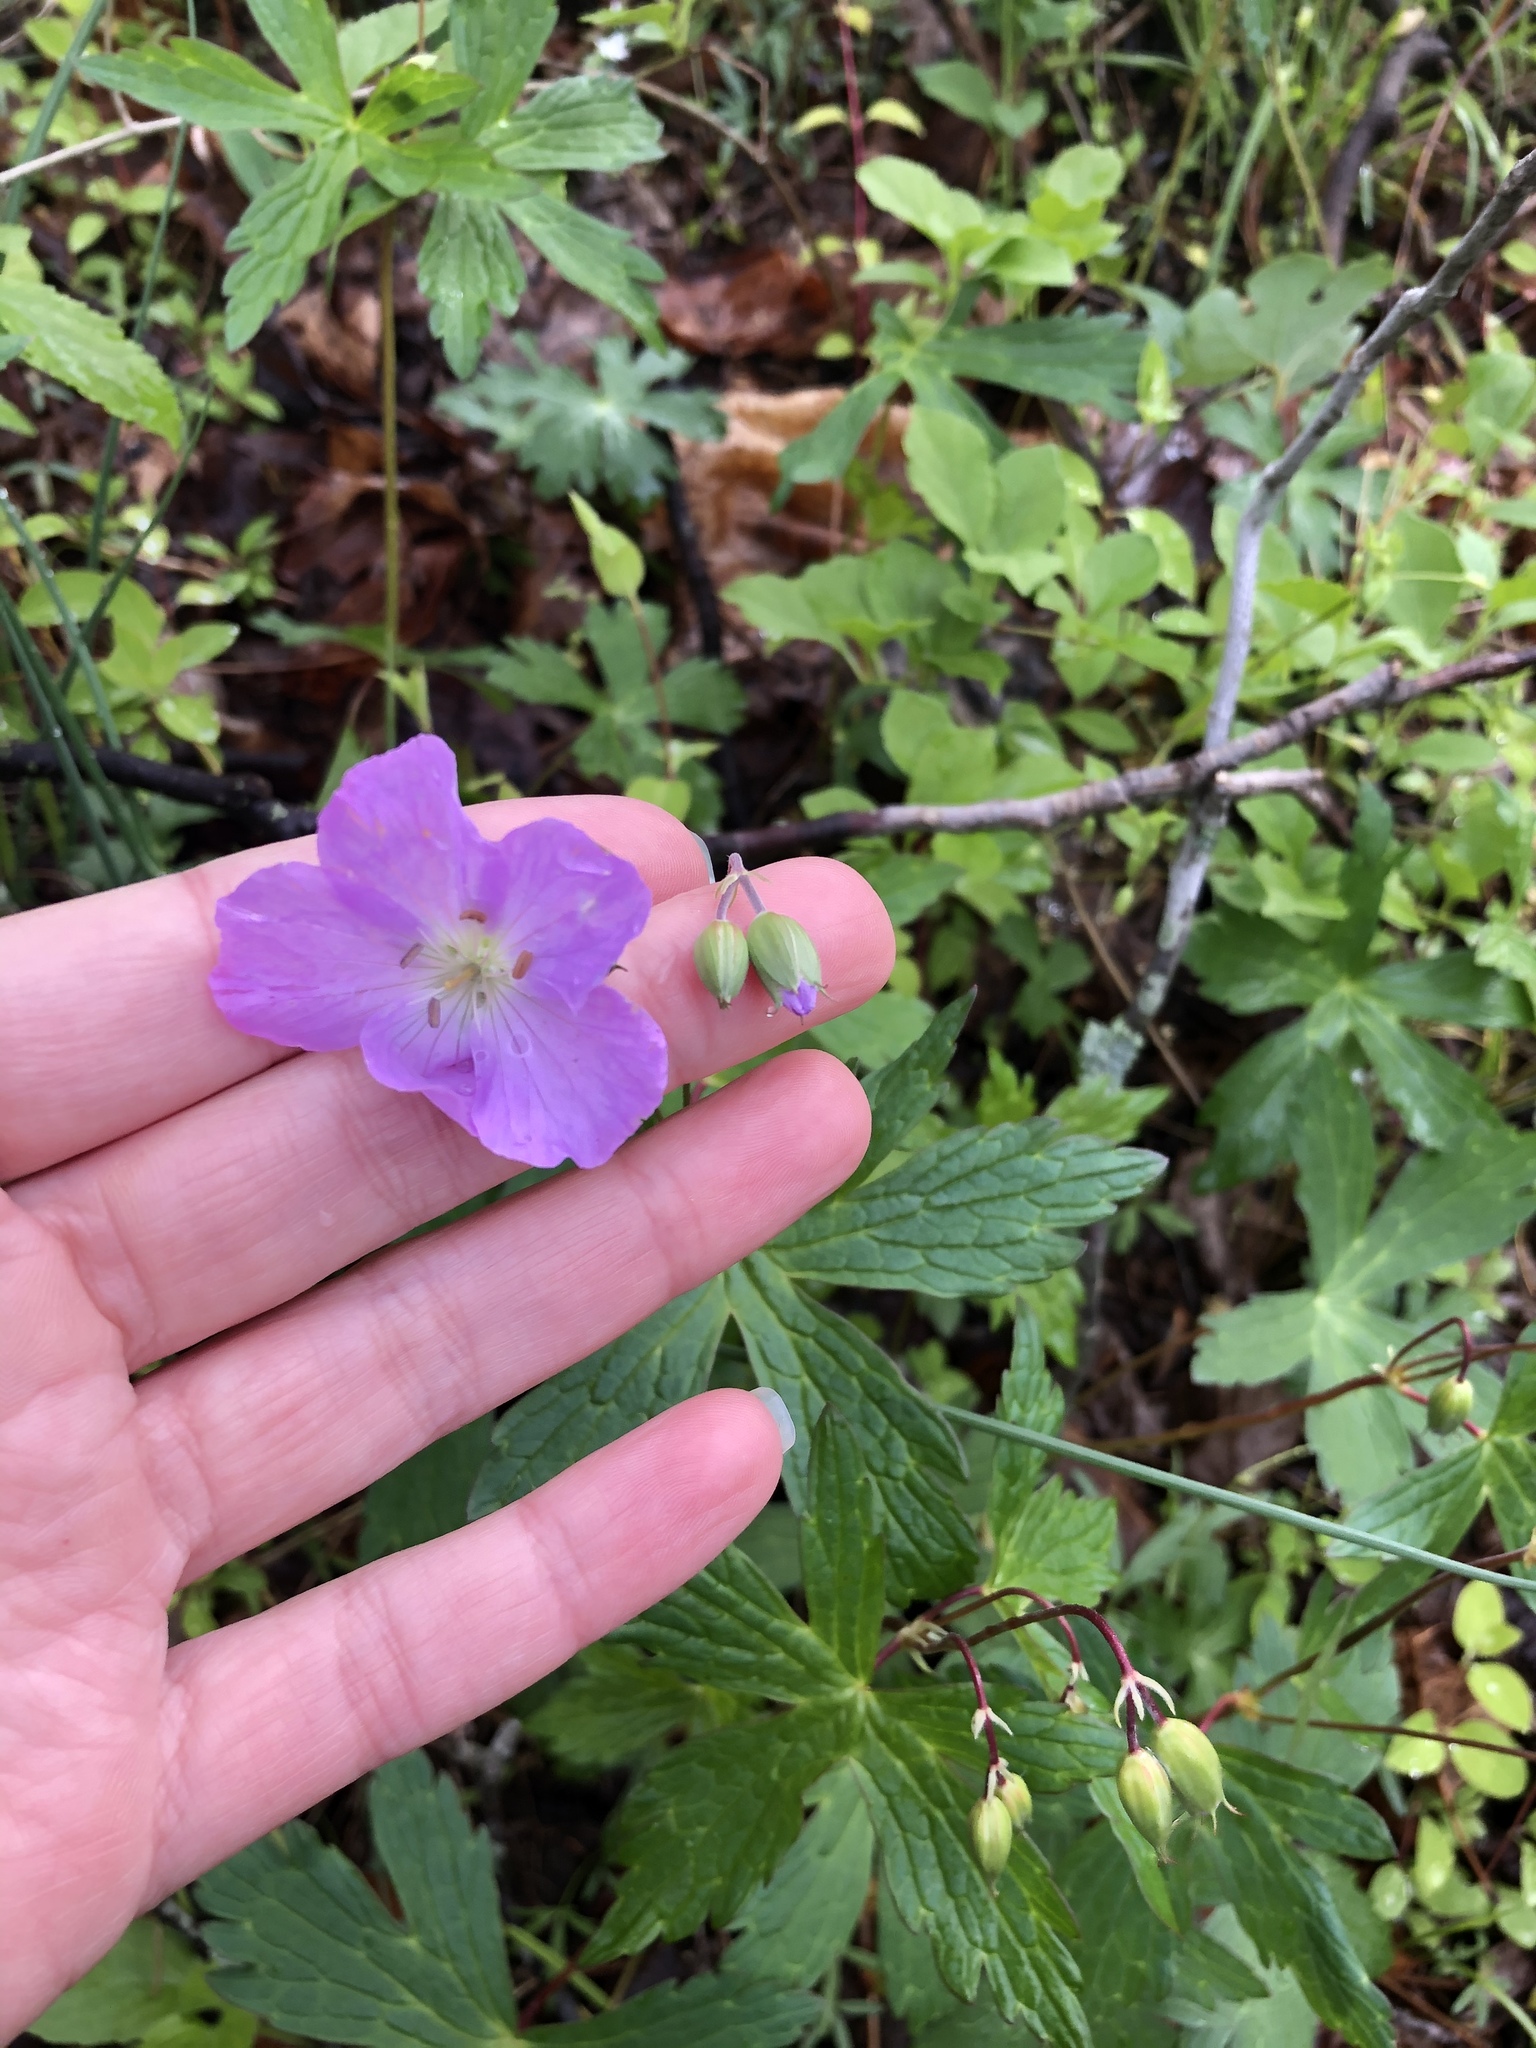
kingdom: Plantae
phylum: Tracheophyta
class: Magnoliopsida
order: Geraniales
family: Geraniaceae
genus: Geranium
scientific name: Geranium maculatum
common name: Spotted geranium
